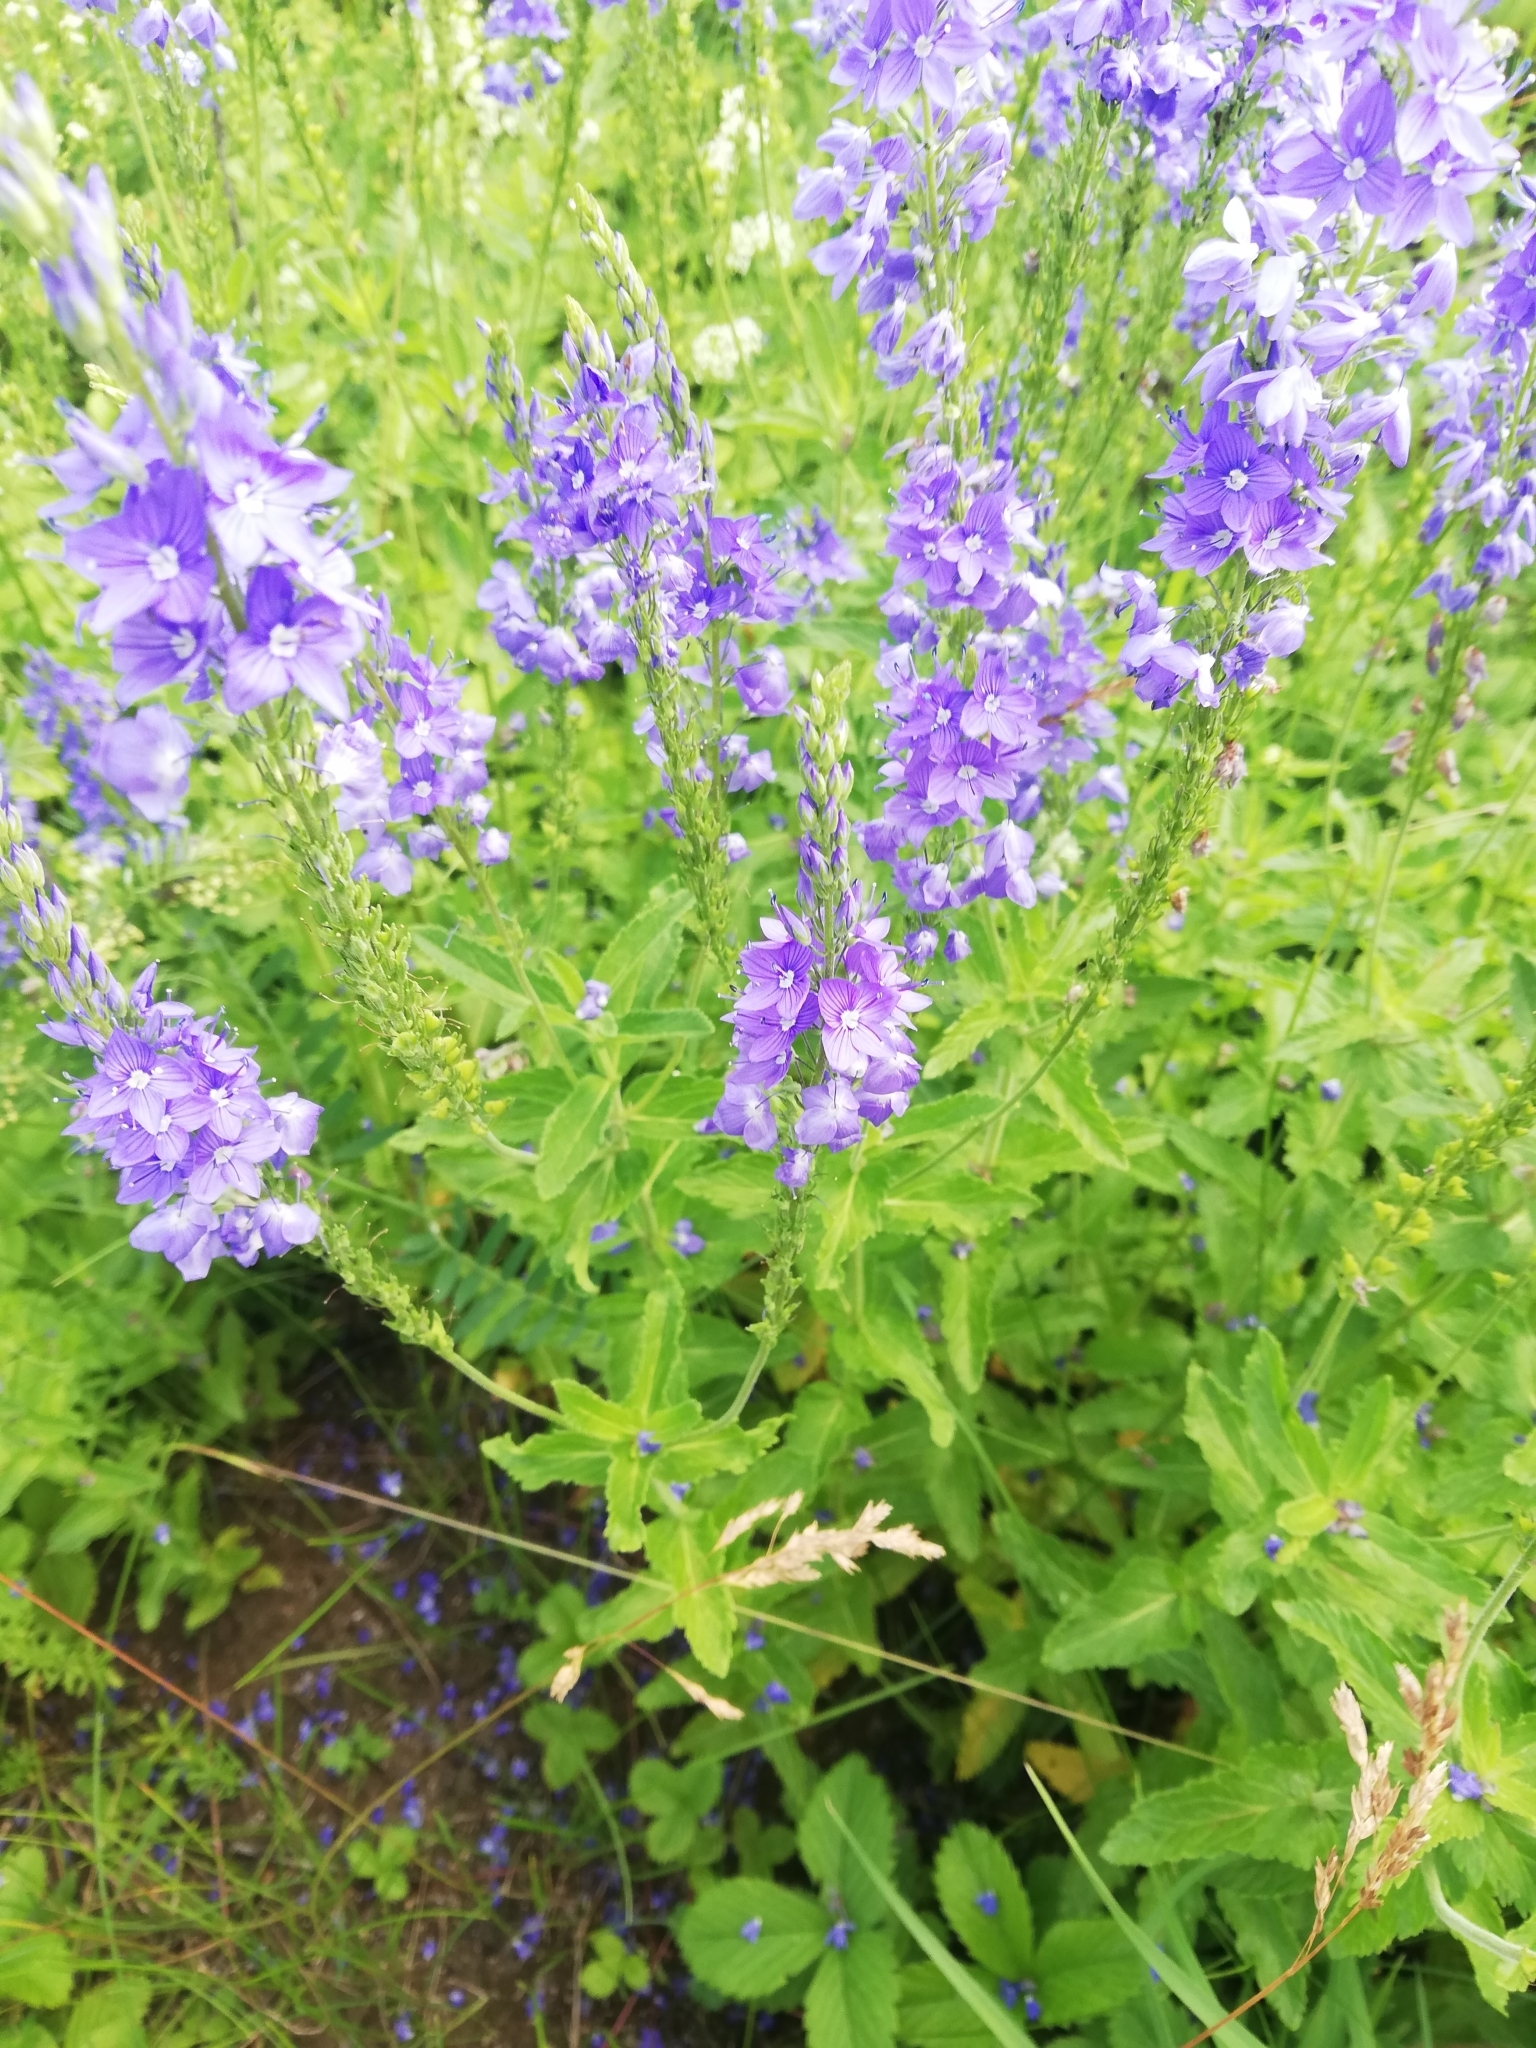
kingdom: Plantae
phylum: Tracheophyta
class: Magnoliopsida
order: Lamiales
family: Plantaginaceae
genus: Veronica
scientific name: Veronica teucrium
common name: Large speedwell
